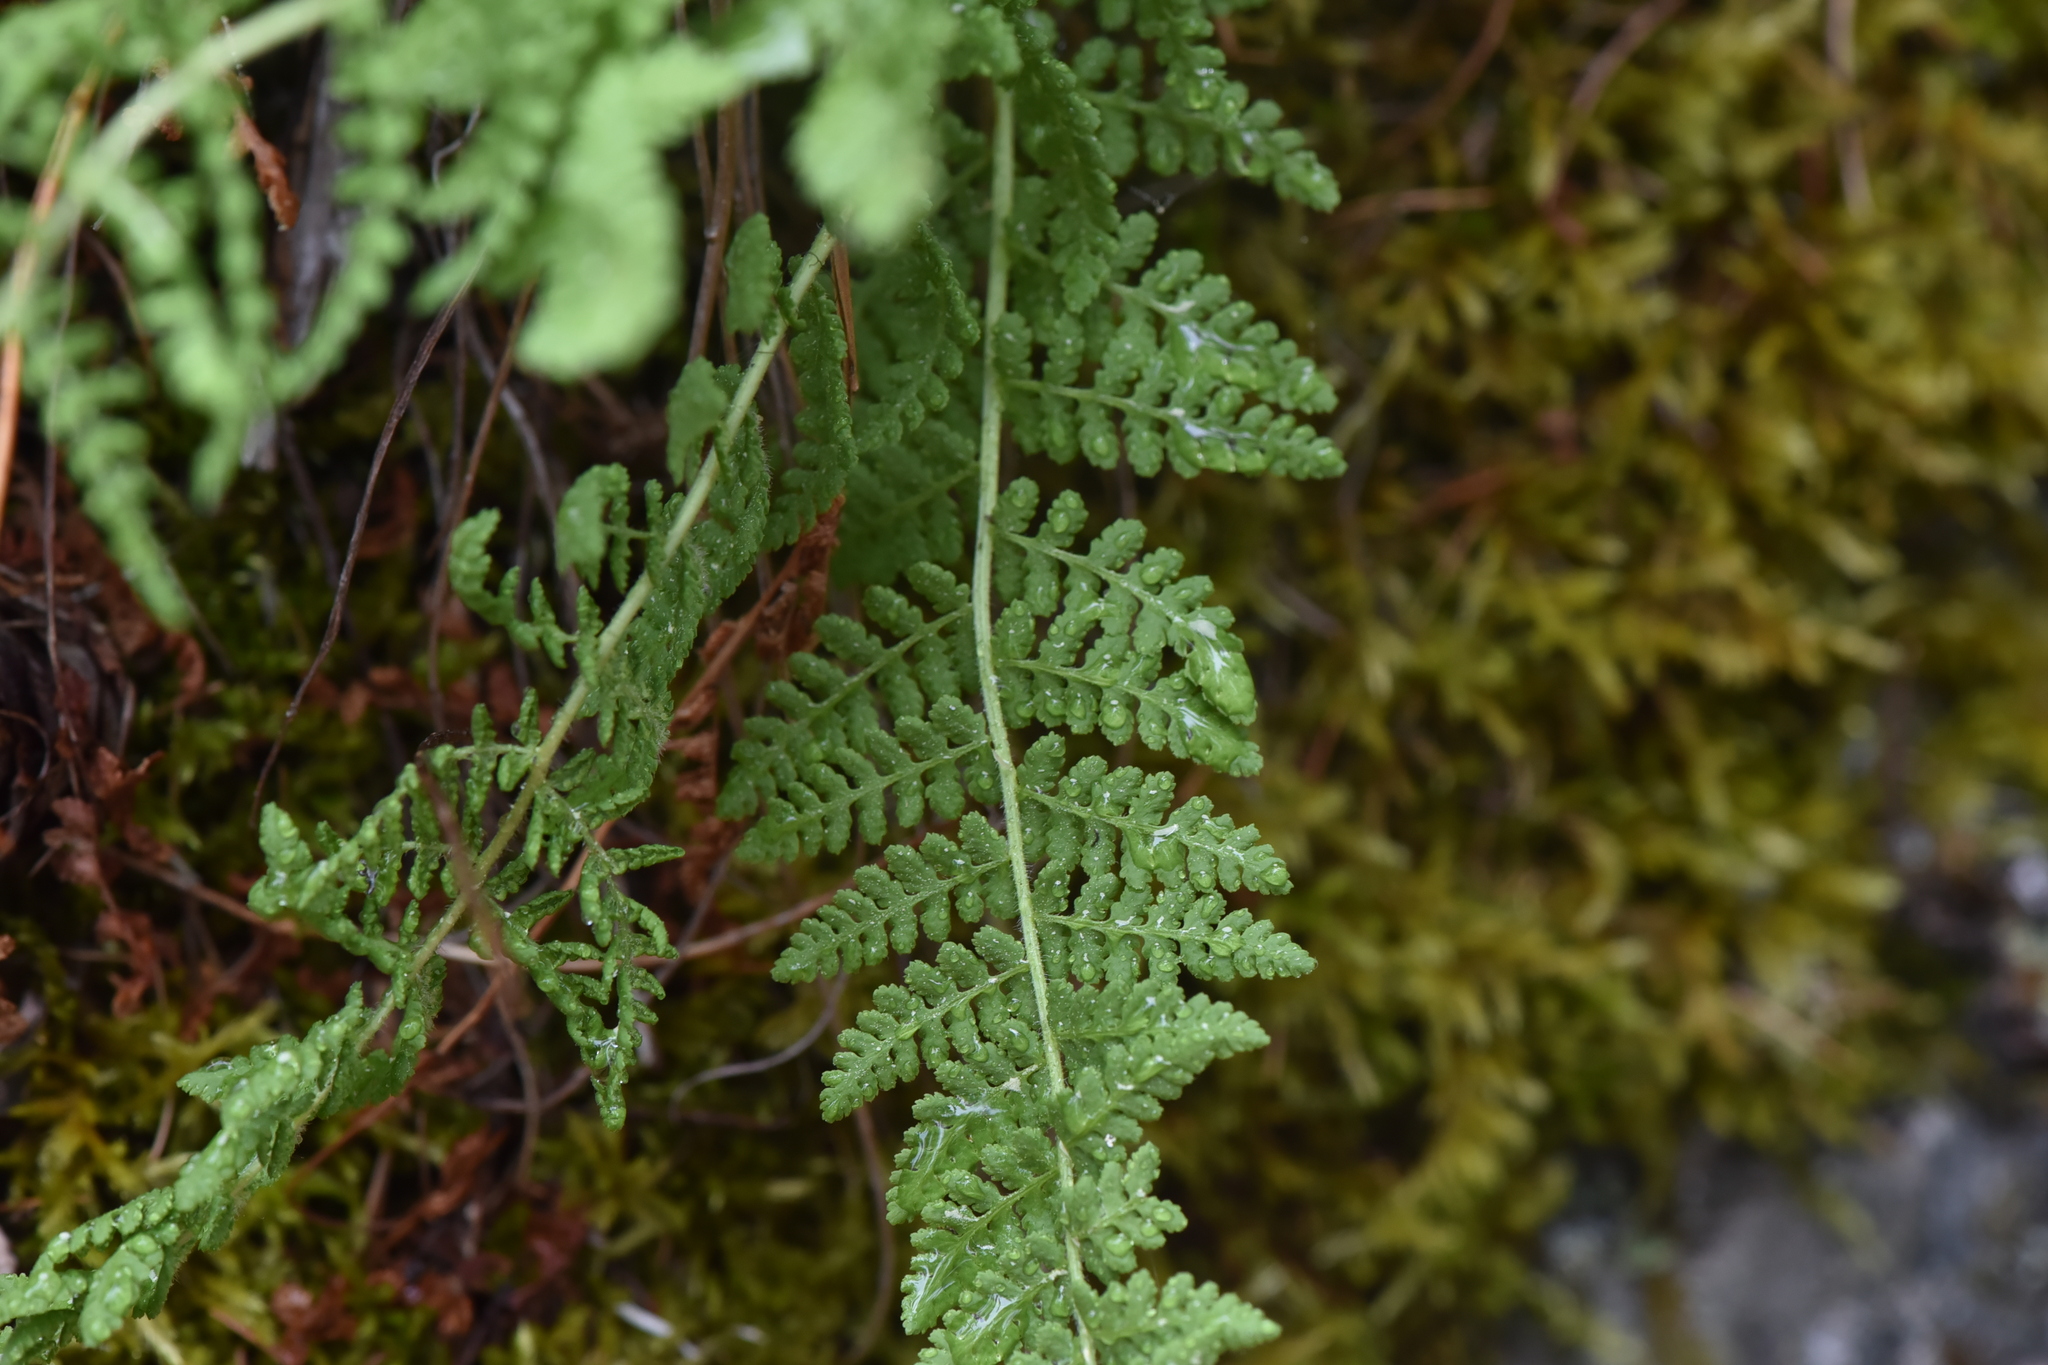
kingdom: Plantae
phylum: Tracheophyta
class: Polypodiopsida
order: Polypodiales
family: Woodsiaceae
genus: Physematium
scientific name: Physematium scopulinum
